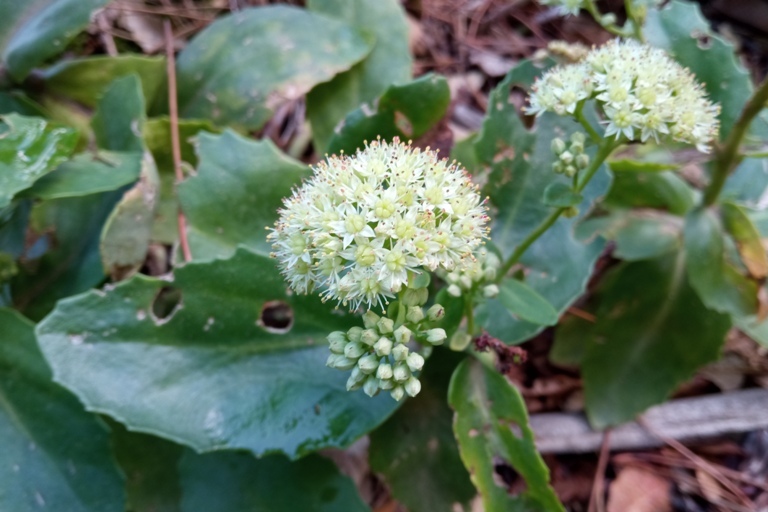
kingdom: Plantae
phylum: Tracheophyta
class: Magnoliopsida
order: Saxifragales
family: Crassulaceae
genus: Hylotelephium
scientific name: Hylotelephium maximum
